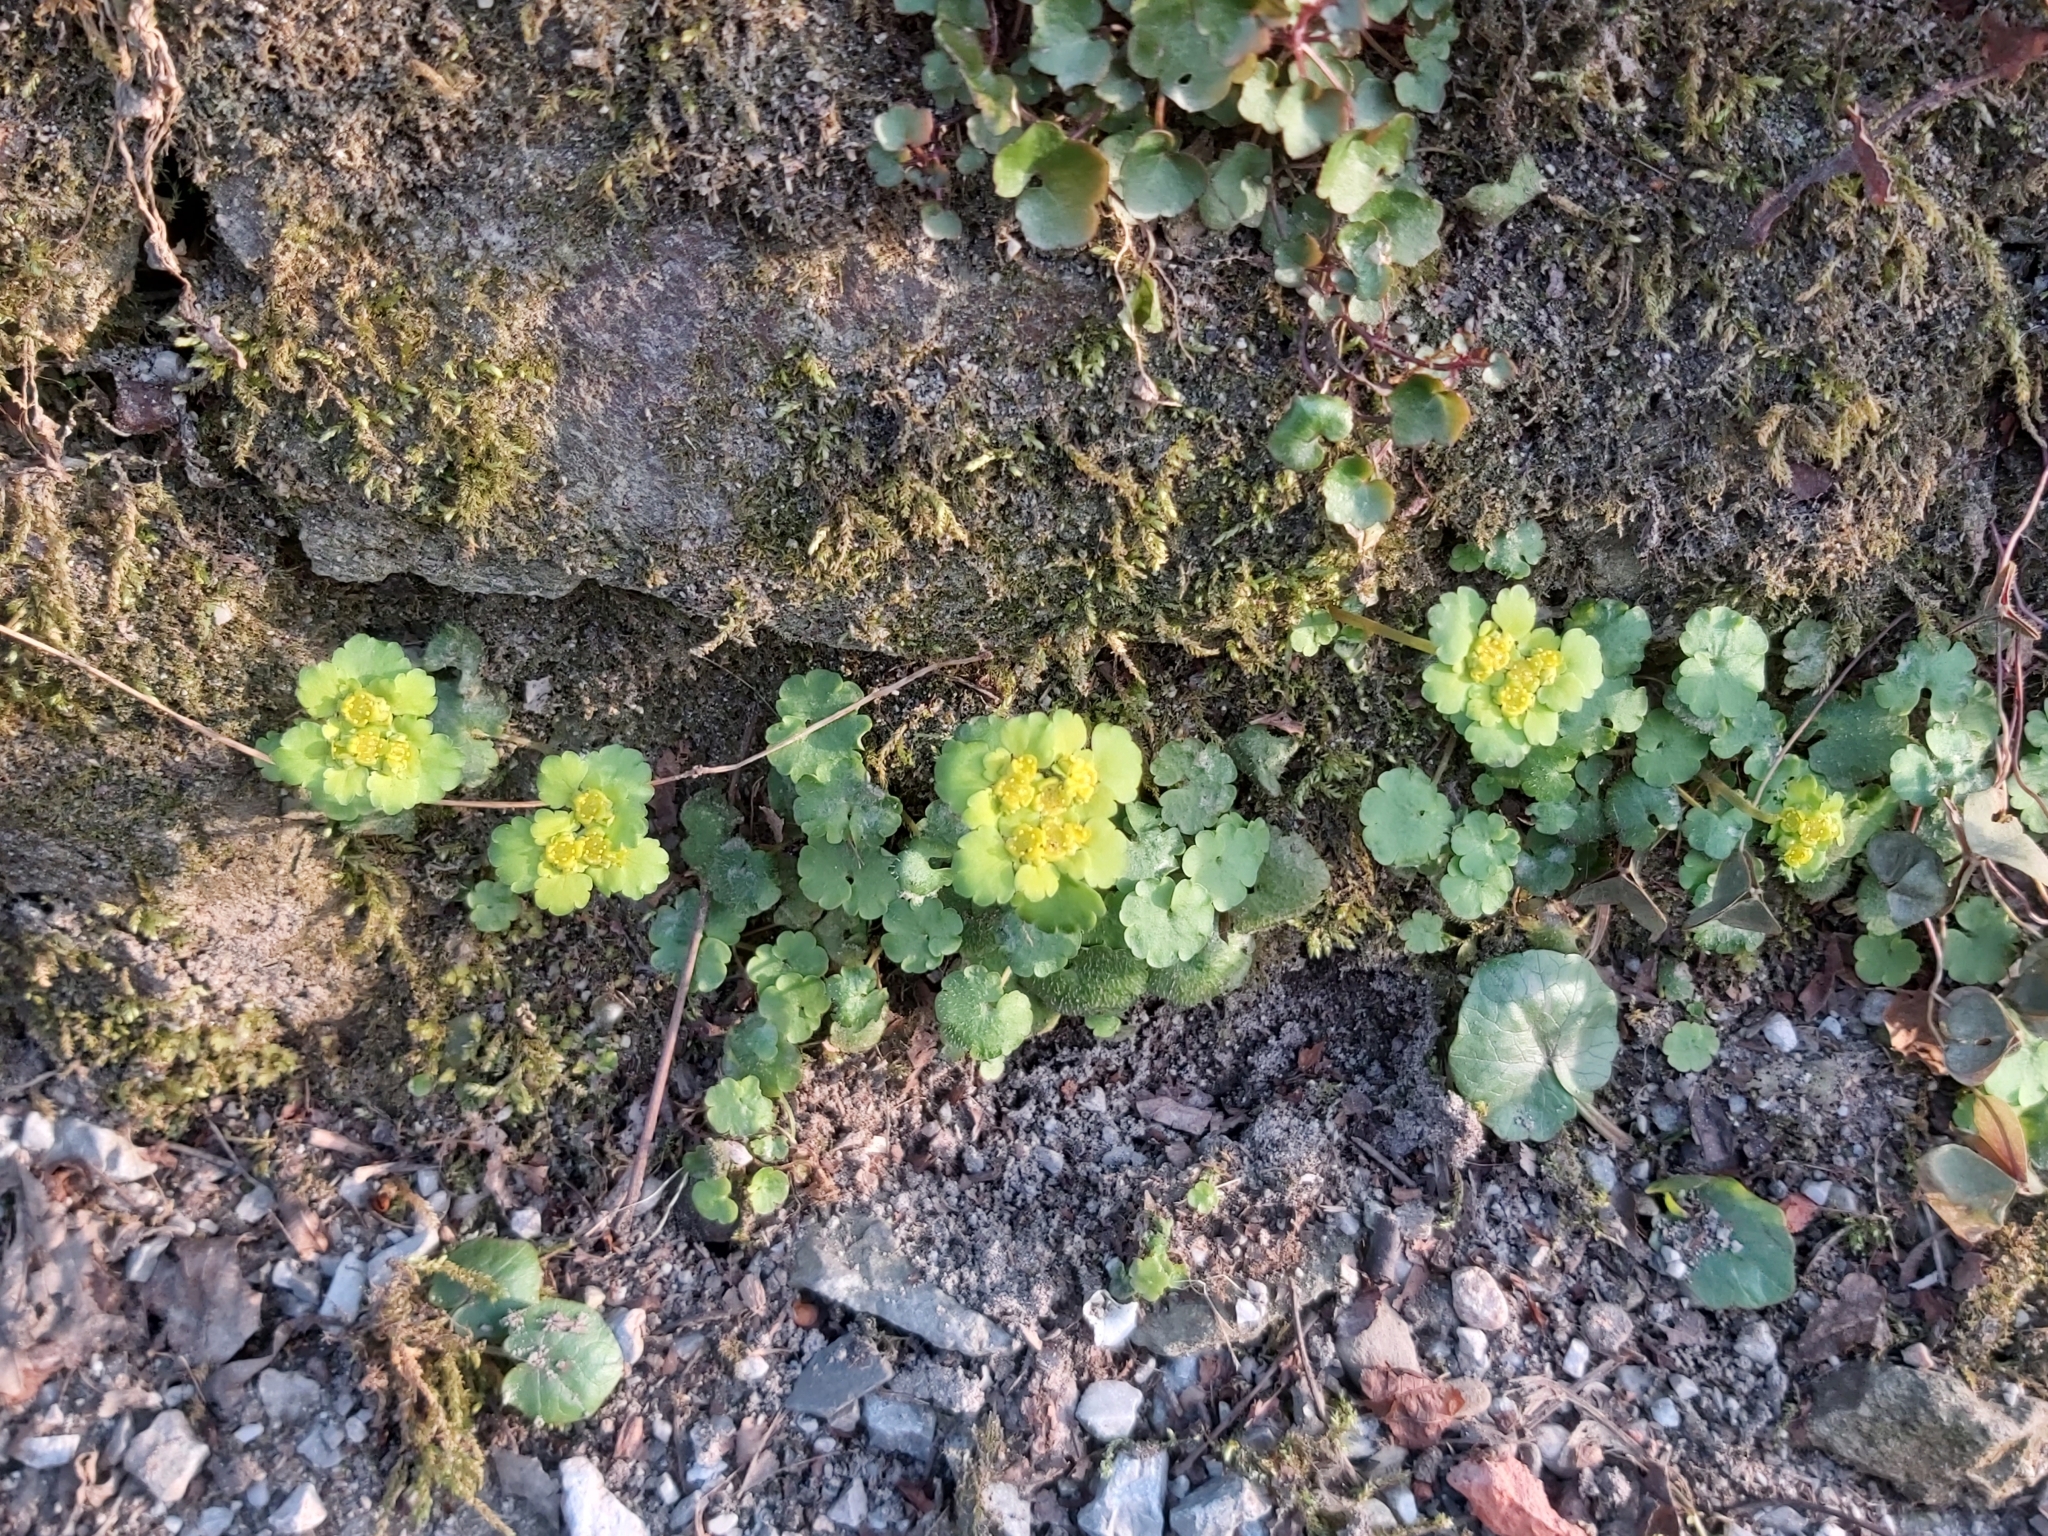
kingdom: Plantae
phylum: Tracheophyta
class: Magnoliopsida
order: Saxifragales
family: Saxifragaceae
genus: Chrysosplenium
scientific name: Chrysosplenium alternifolium
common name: Alternate-leaved golden-saxifrage
